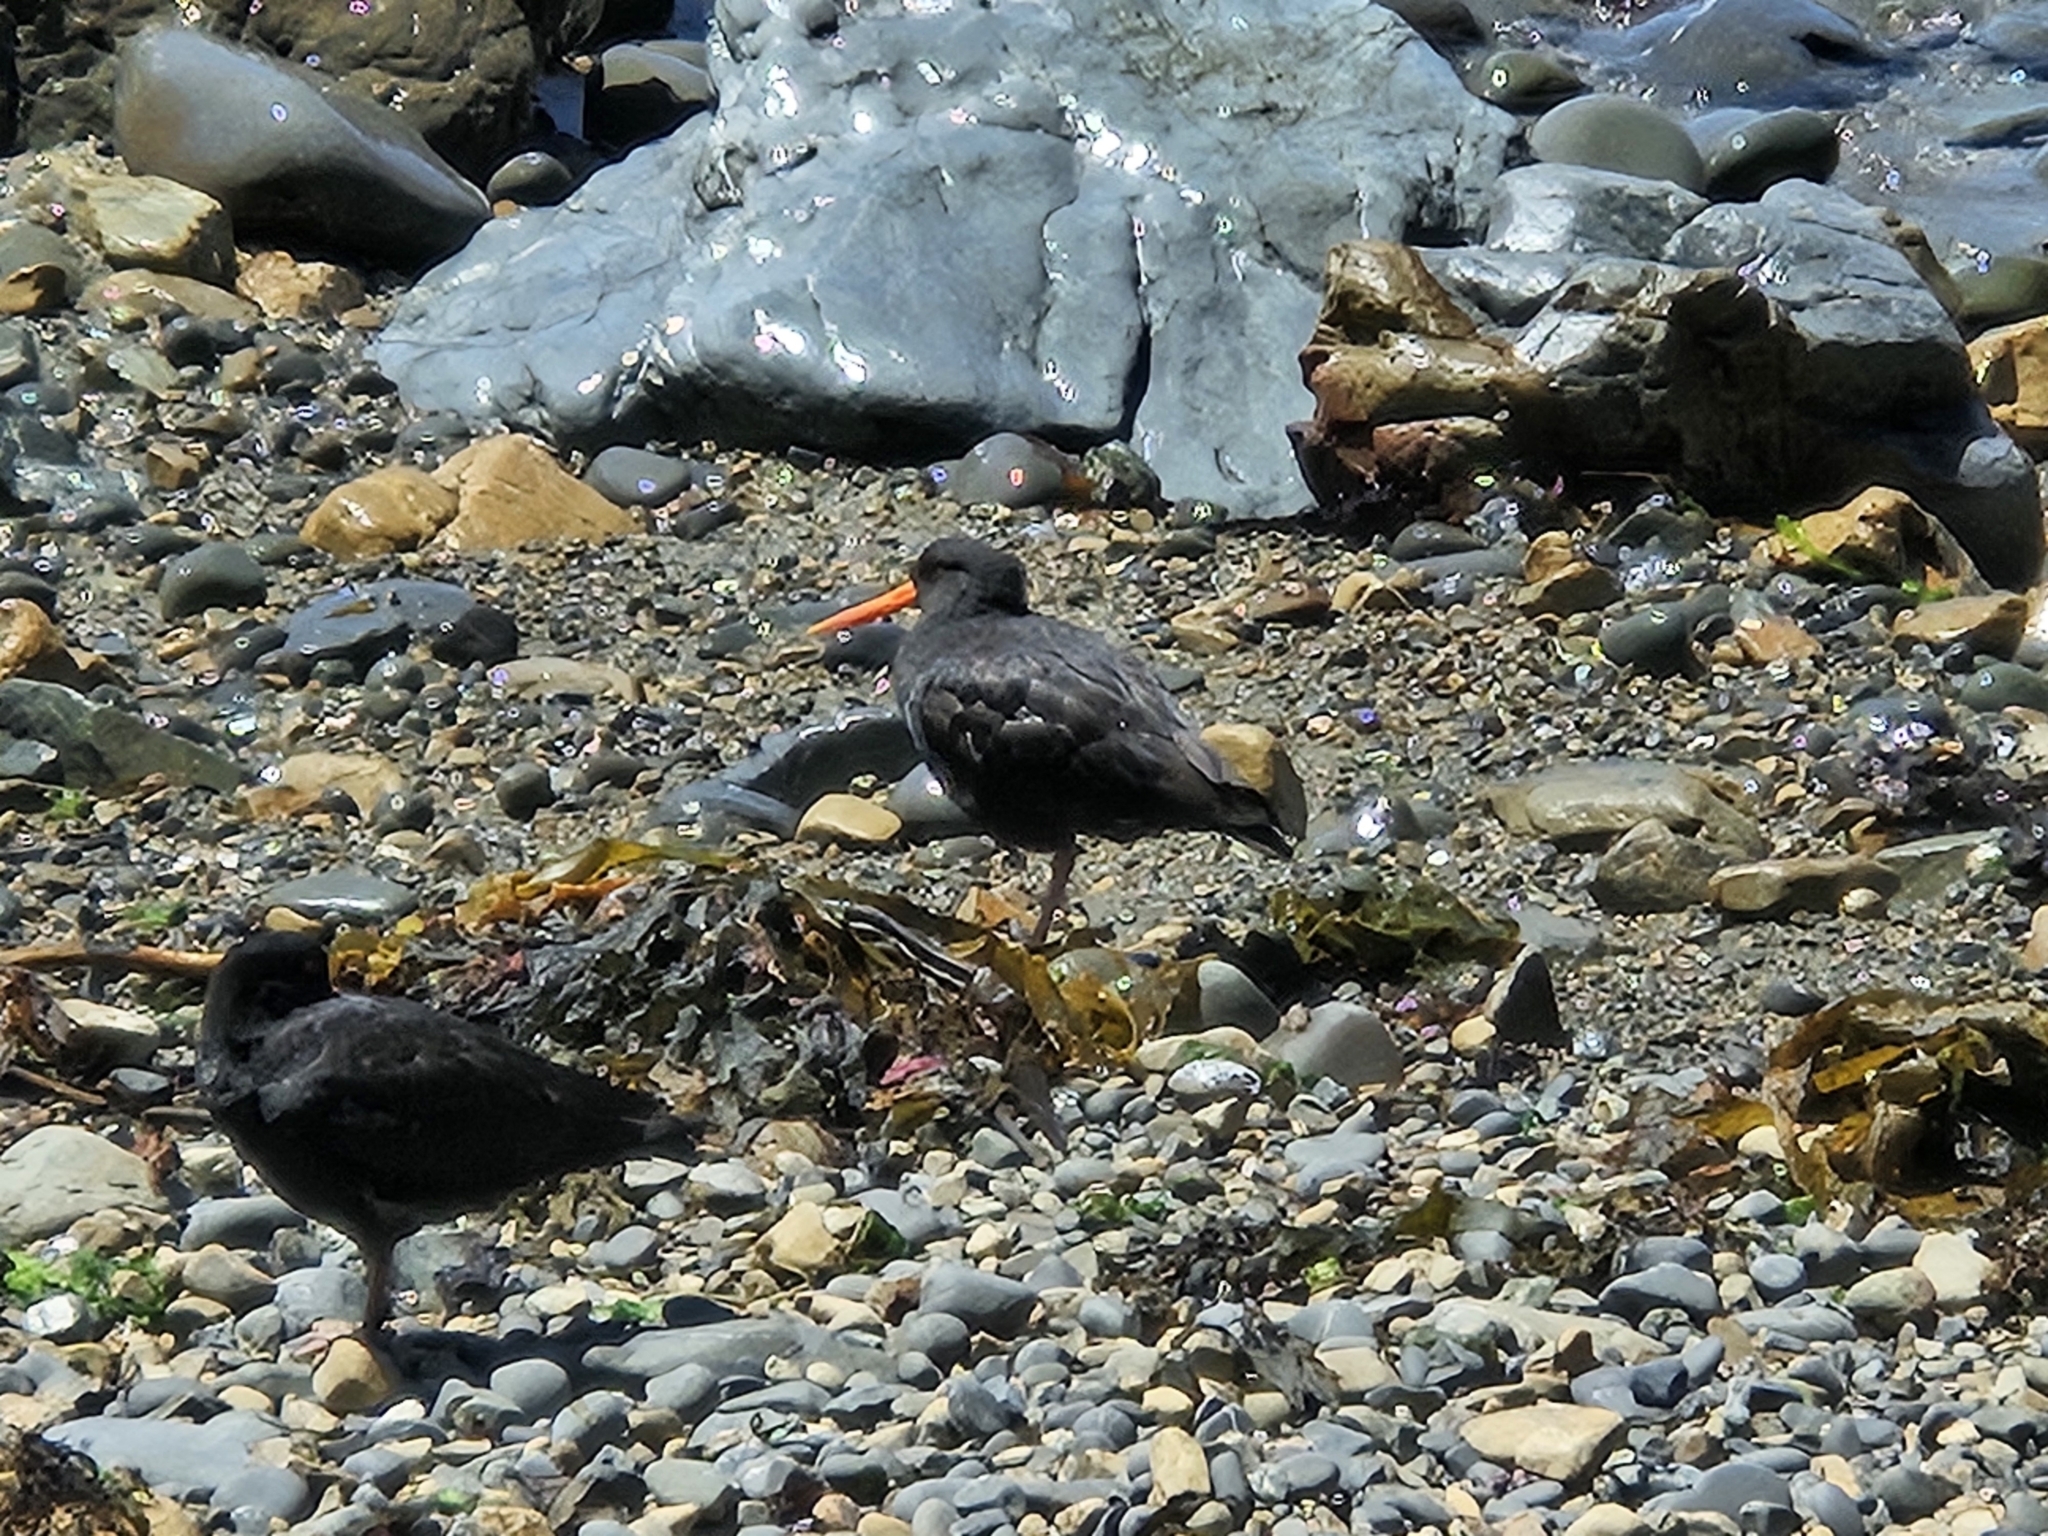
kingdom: Animalia
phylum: Chordata
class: Aves
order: Charadriiformes
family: Haematopodidae
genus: Haematopus
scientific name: Haematopus unicolor
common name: Variable oystercatcher
